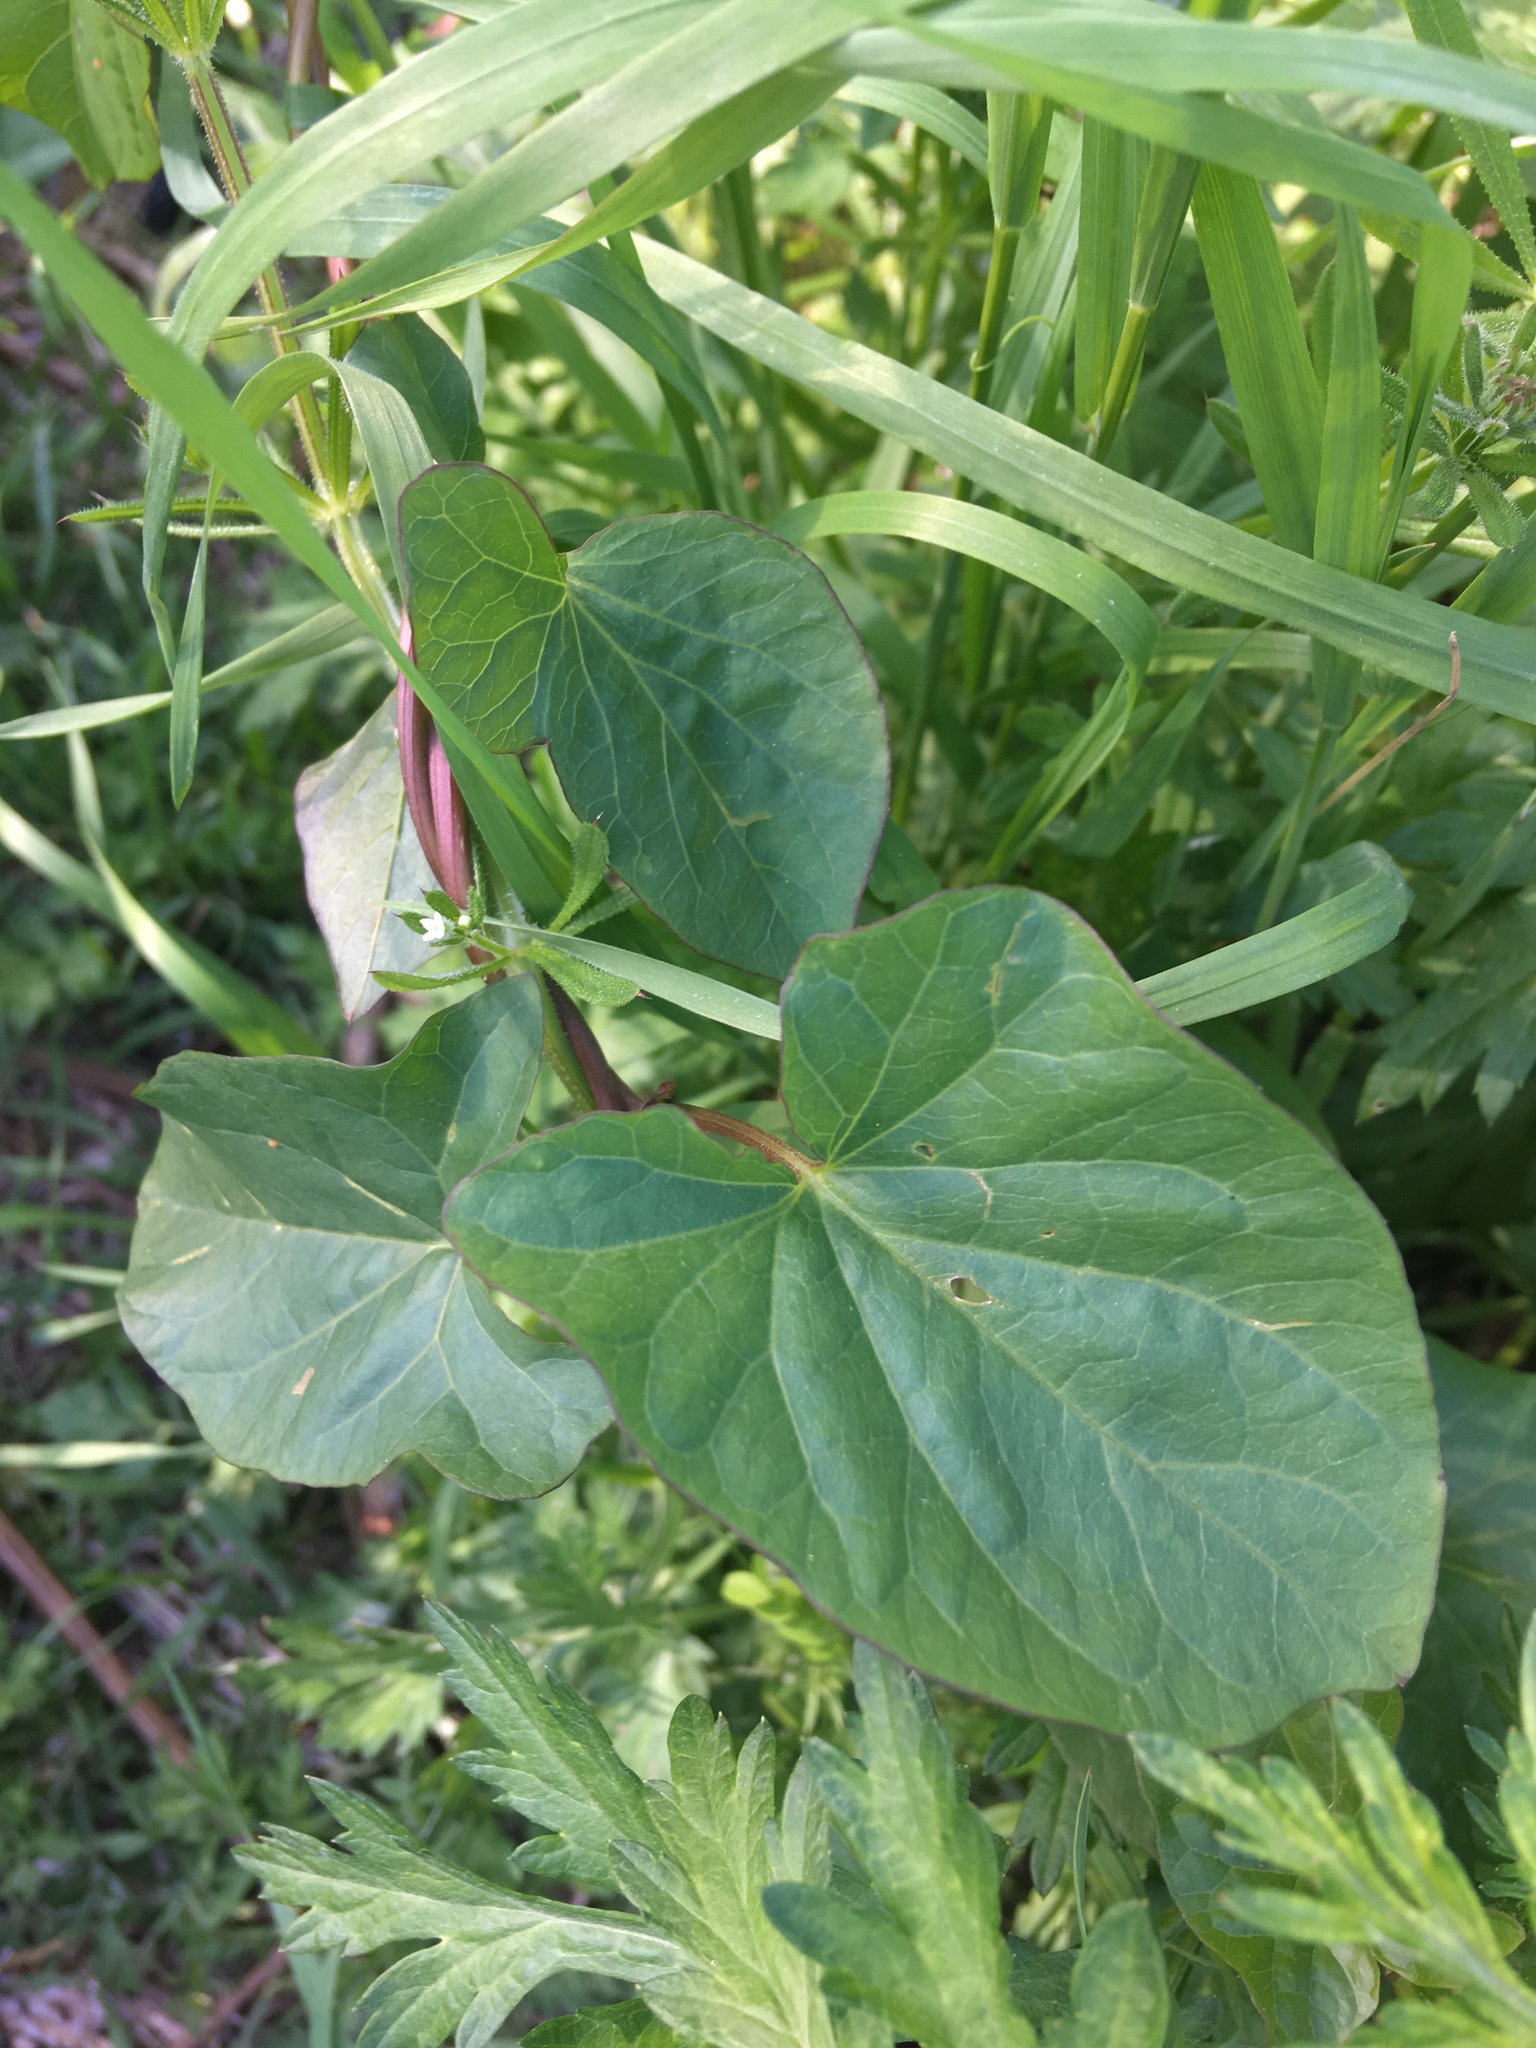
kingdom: Plantae
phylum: Tracheophyta
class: Magnoliopsida
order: Solanales
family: Convolvulaceae
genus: Calystegia
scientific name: Calystegia sepium
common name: Hedge bindweed
